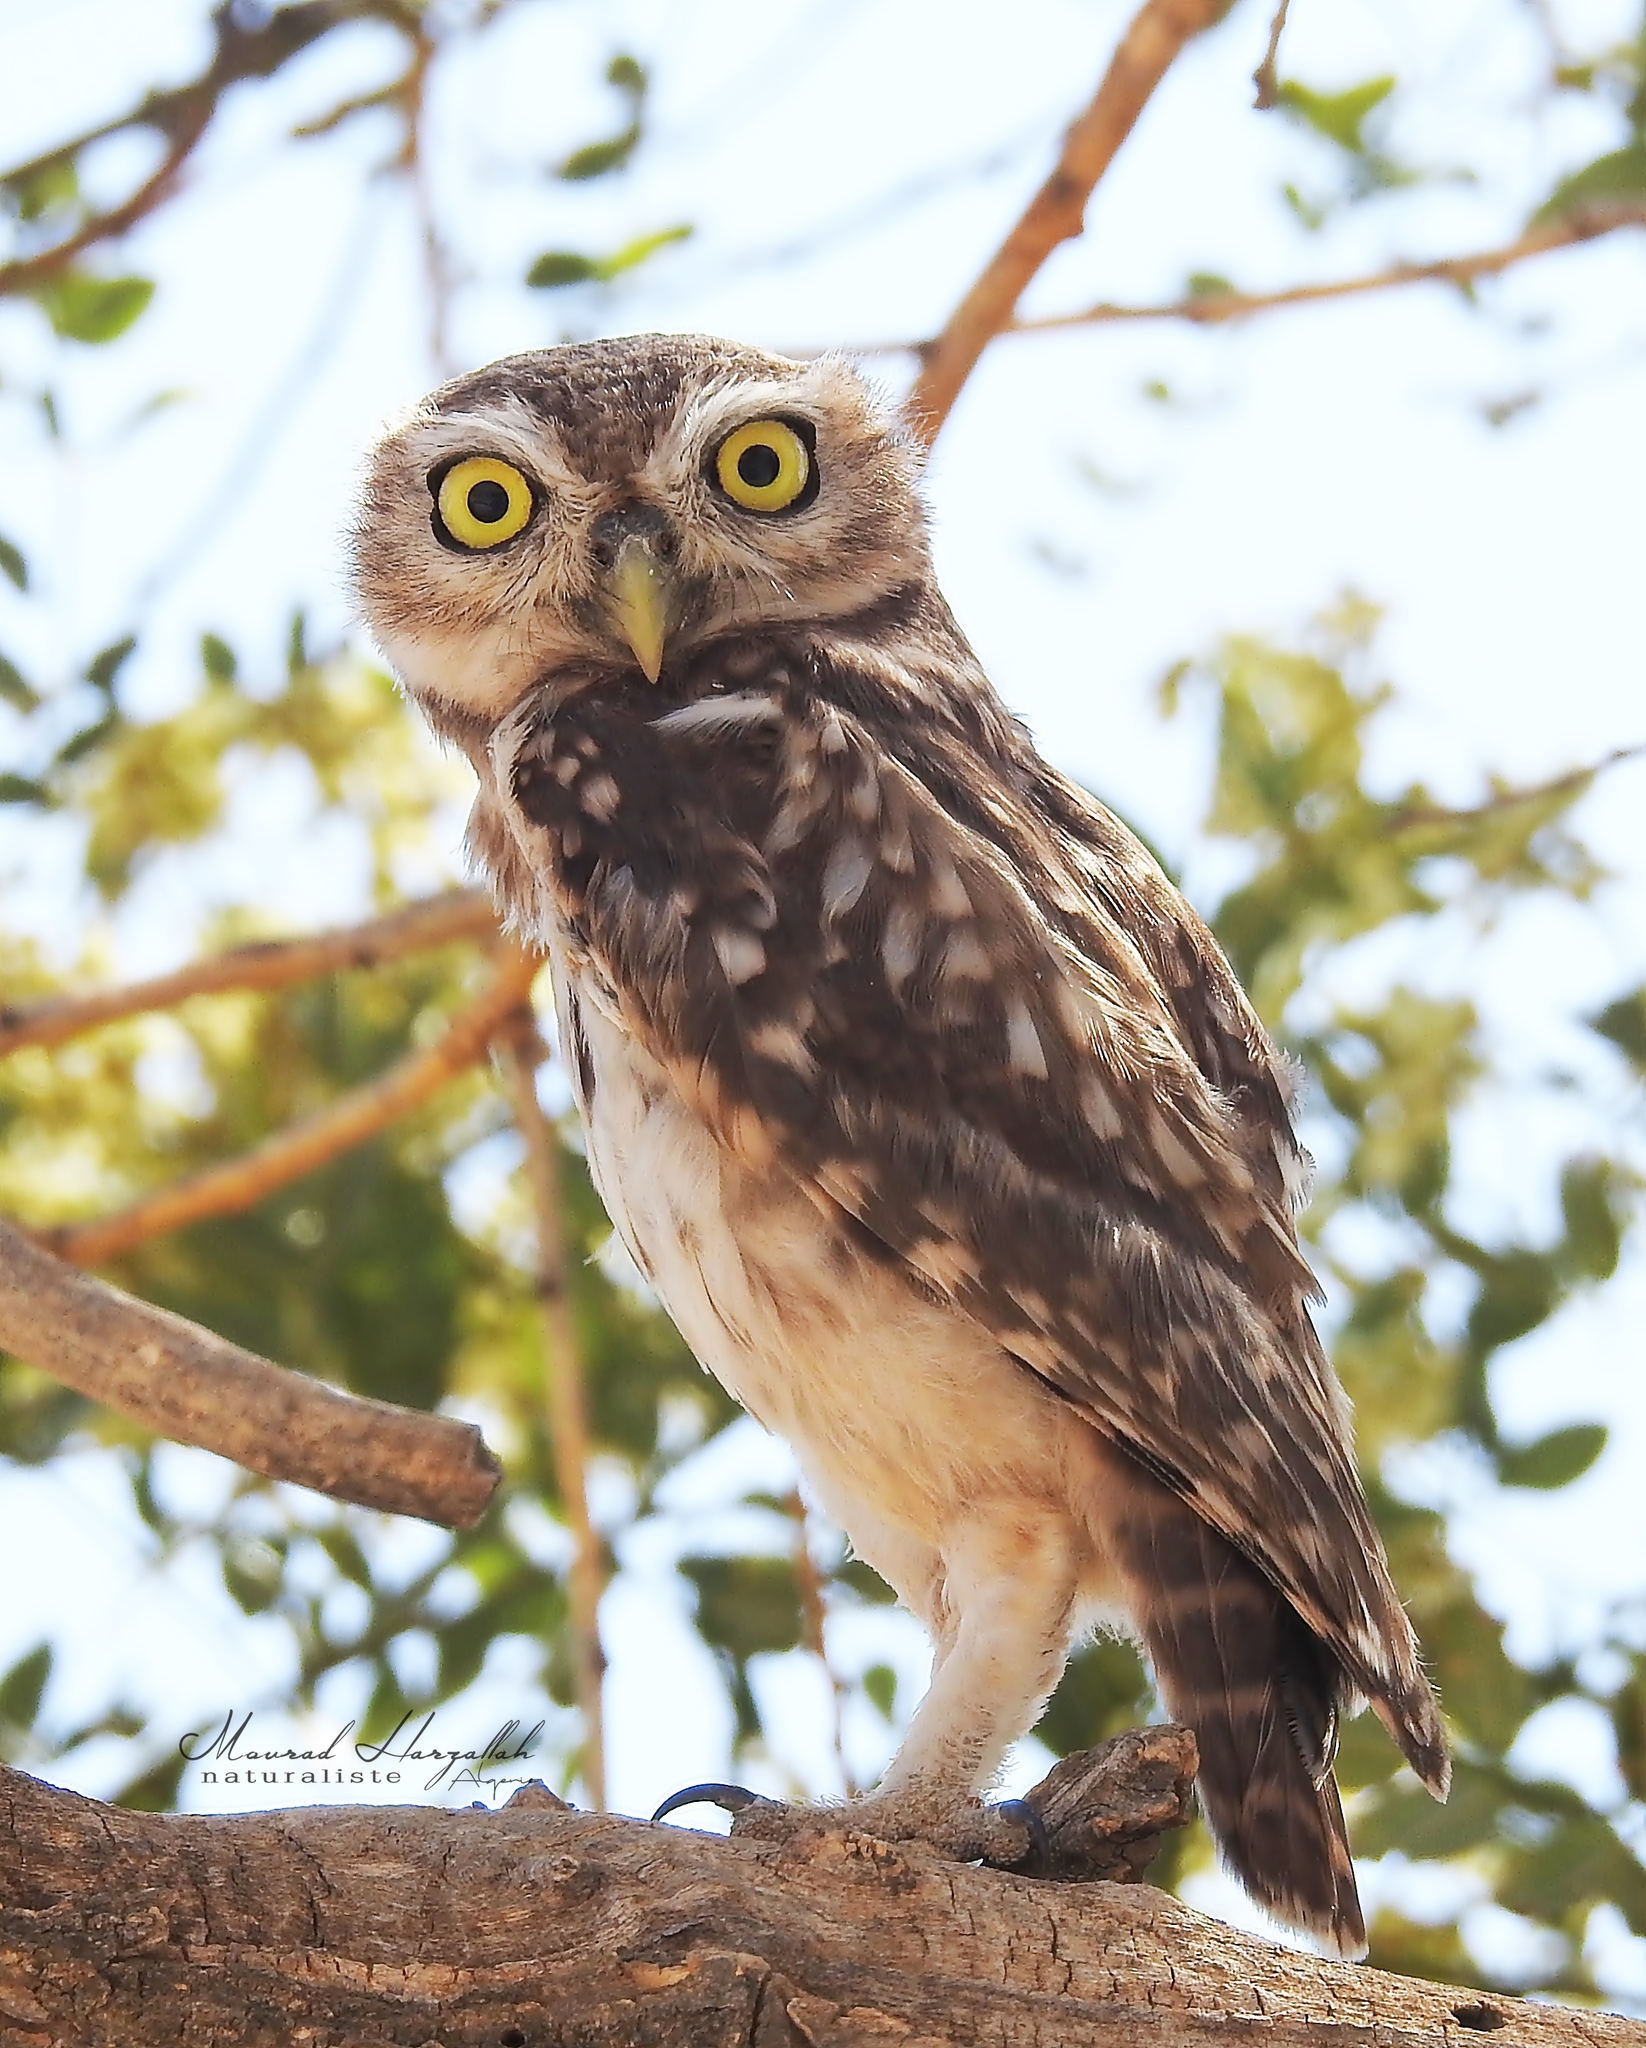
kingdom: Animalia
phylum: Chordata
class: Aves
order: Strigiformes
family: Strigidae
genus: Athene
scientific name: Athene noctua
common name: Little owl
